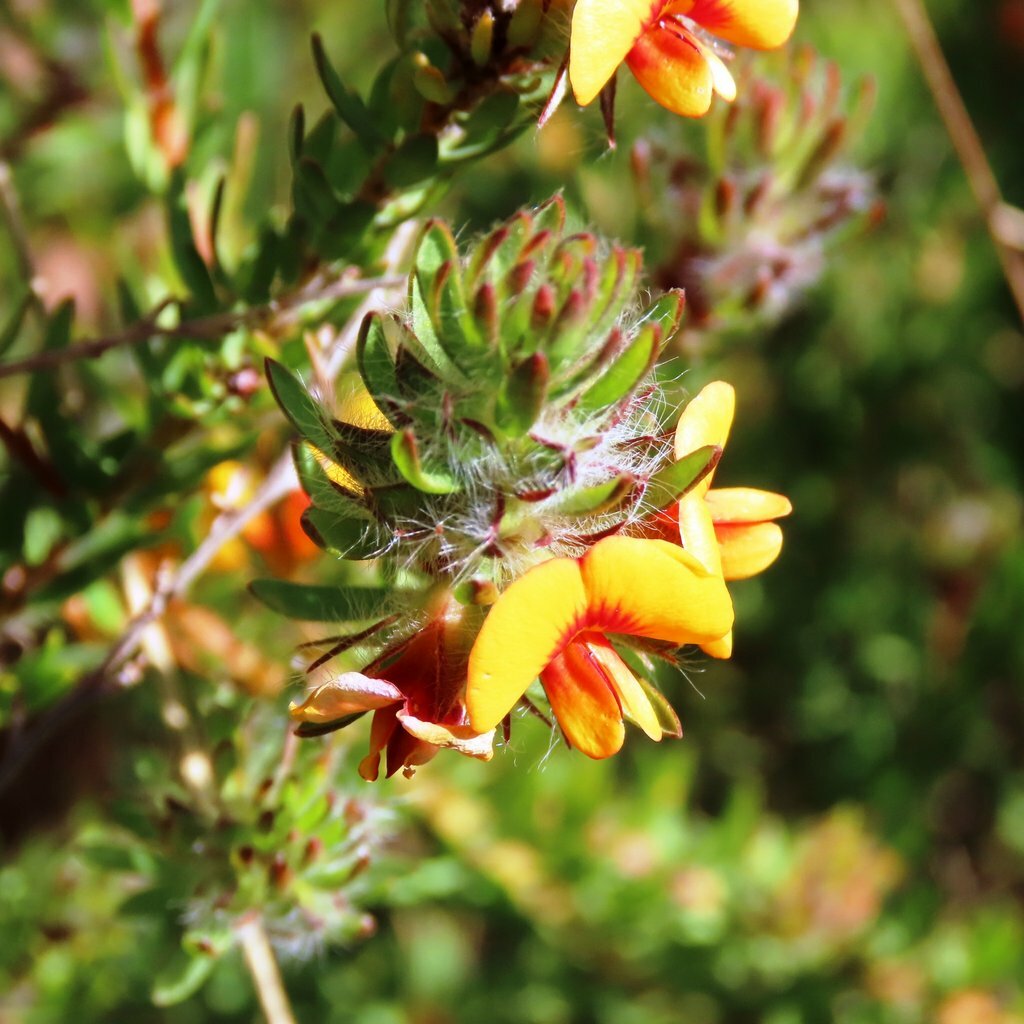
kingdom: Plantae
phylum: Tracheophyta
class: Magnoliopsida
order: Fabales
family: Fabaceae
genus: Pultenaea
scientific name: Pultenaea humilis
